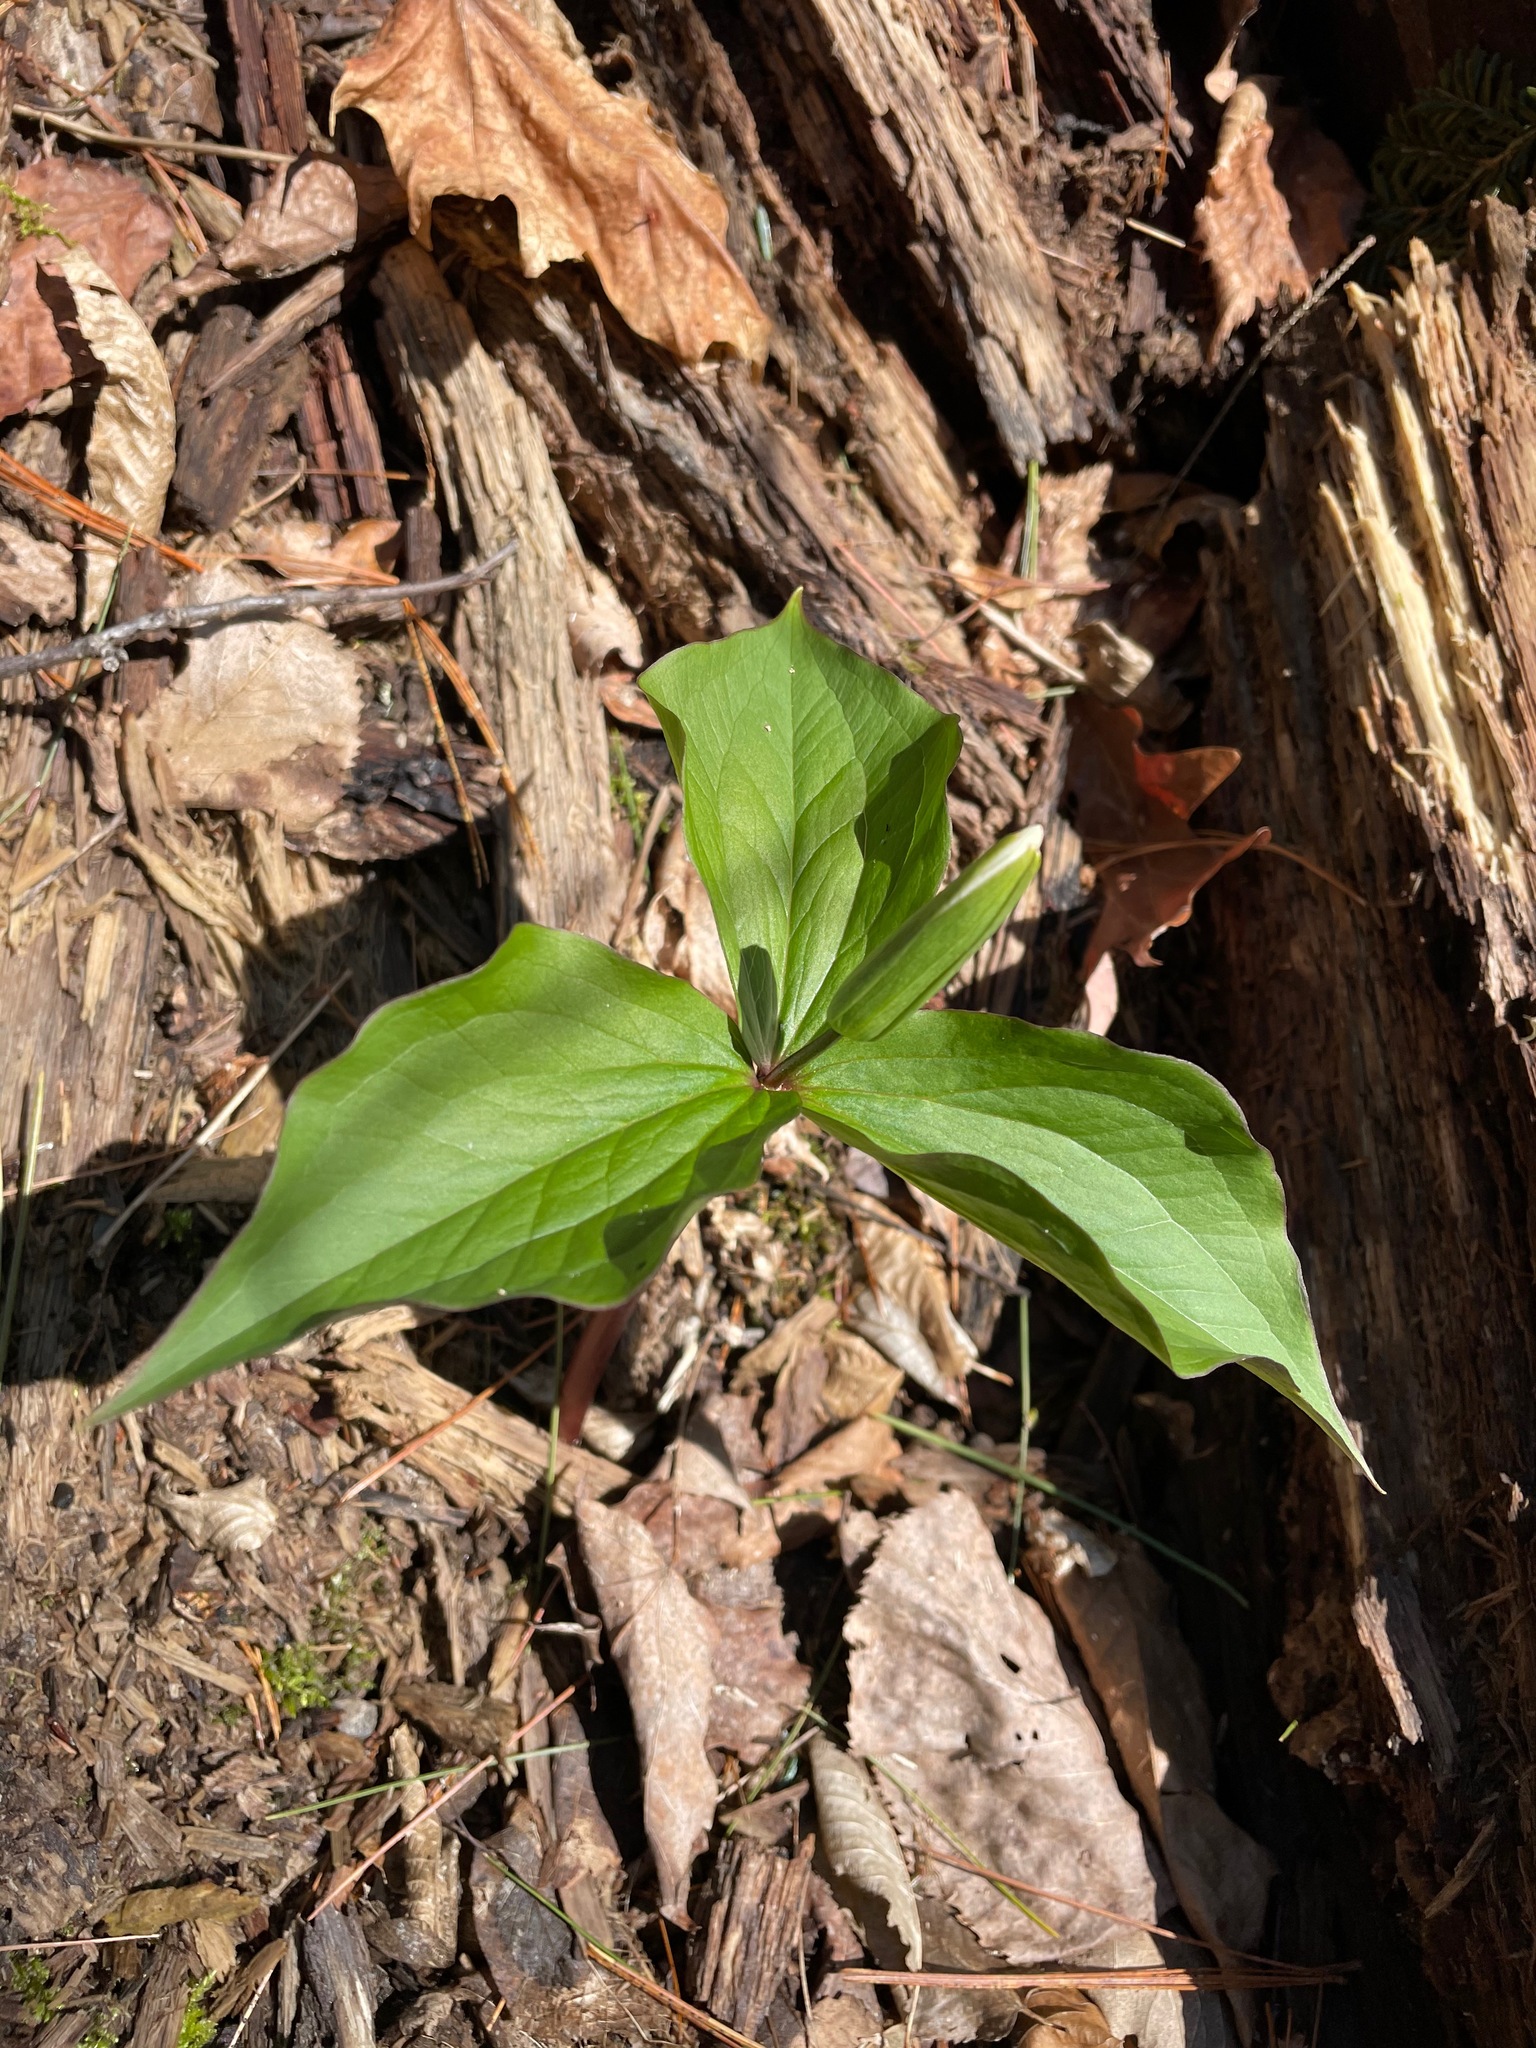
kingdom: Plantae
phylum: Tracheophyta
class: Liliopsida
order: Liliales
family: Melanthiaceae
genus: Trillium
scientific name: Trillium grandiflorum
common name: Great white trillium
